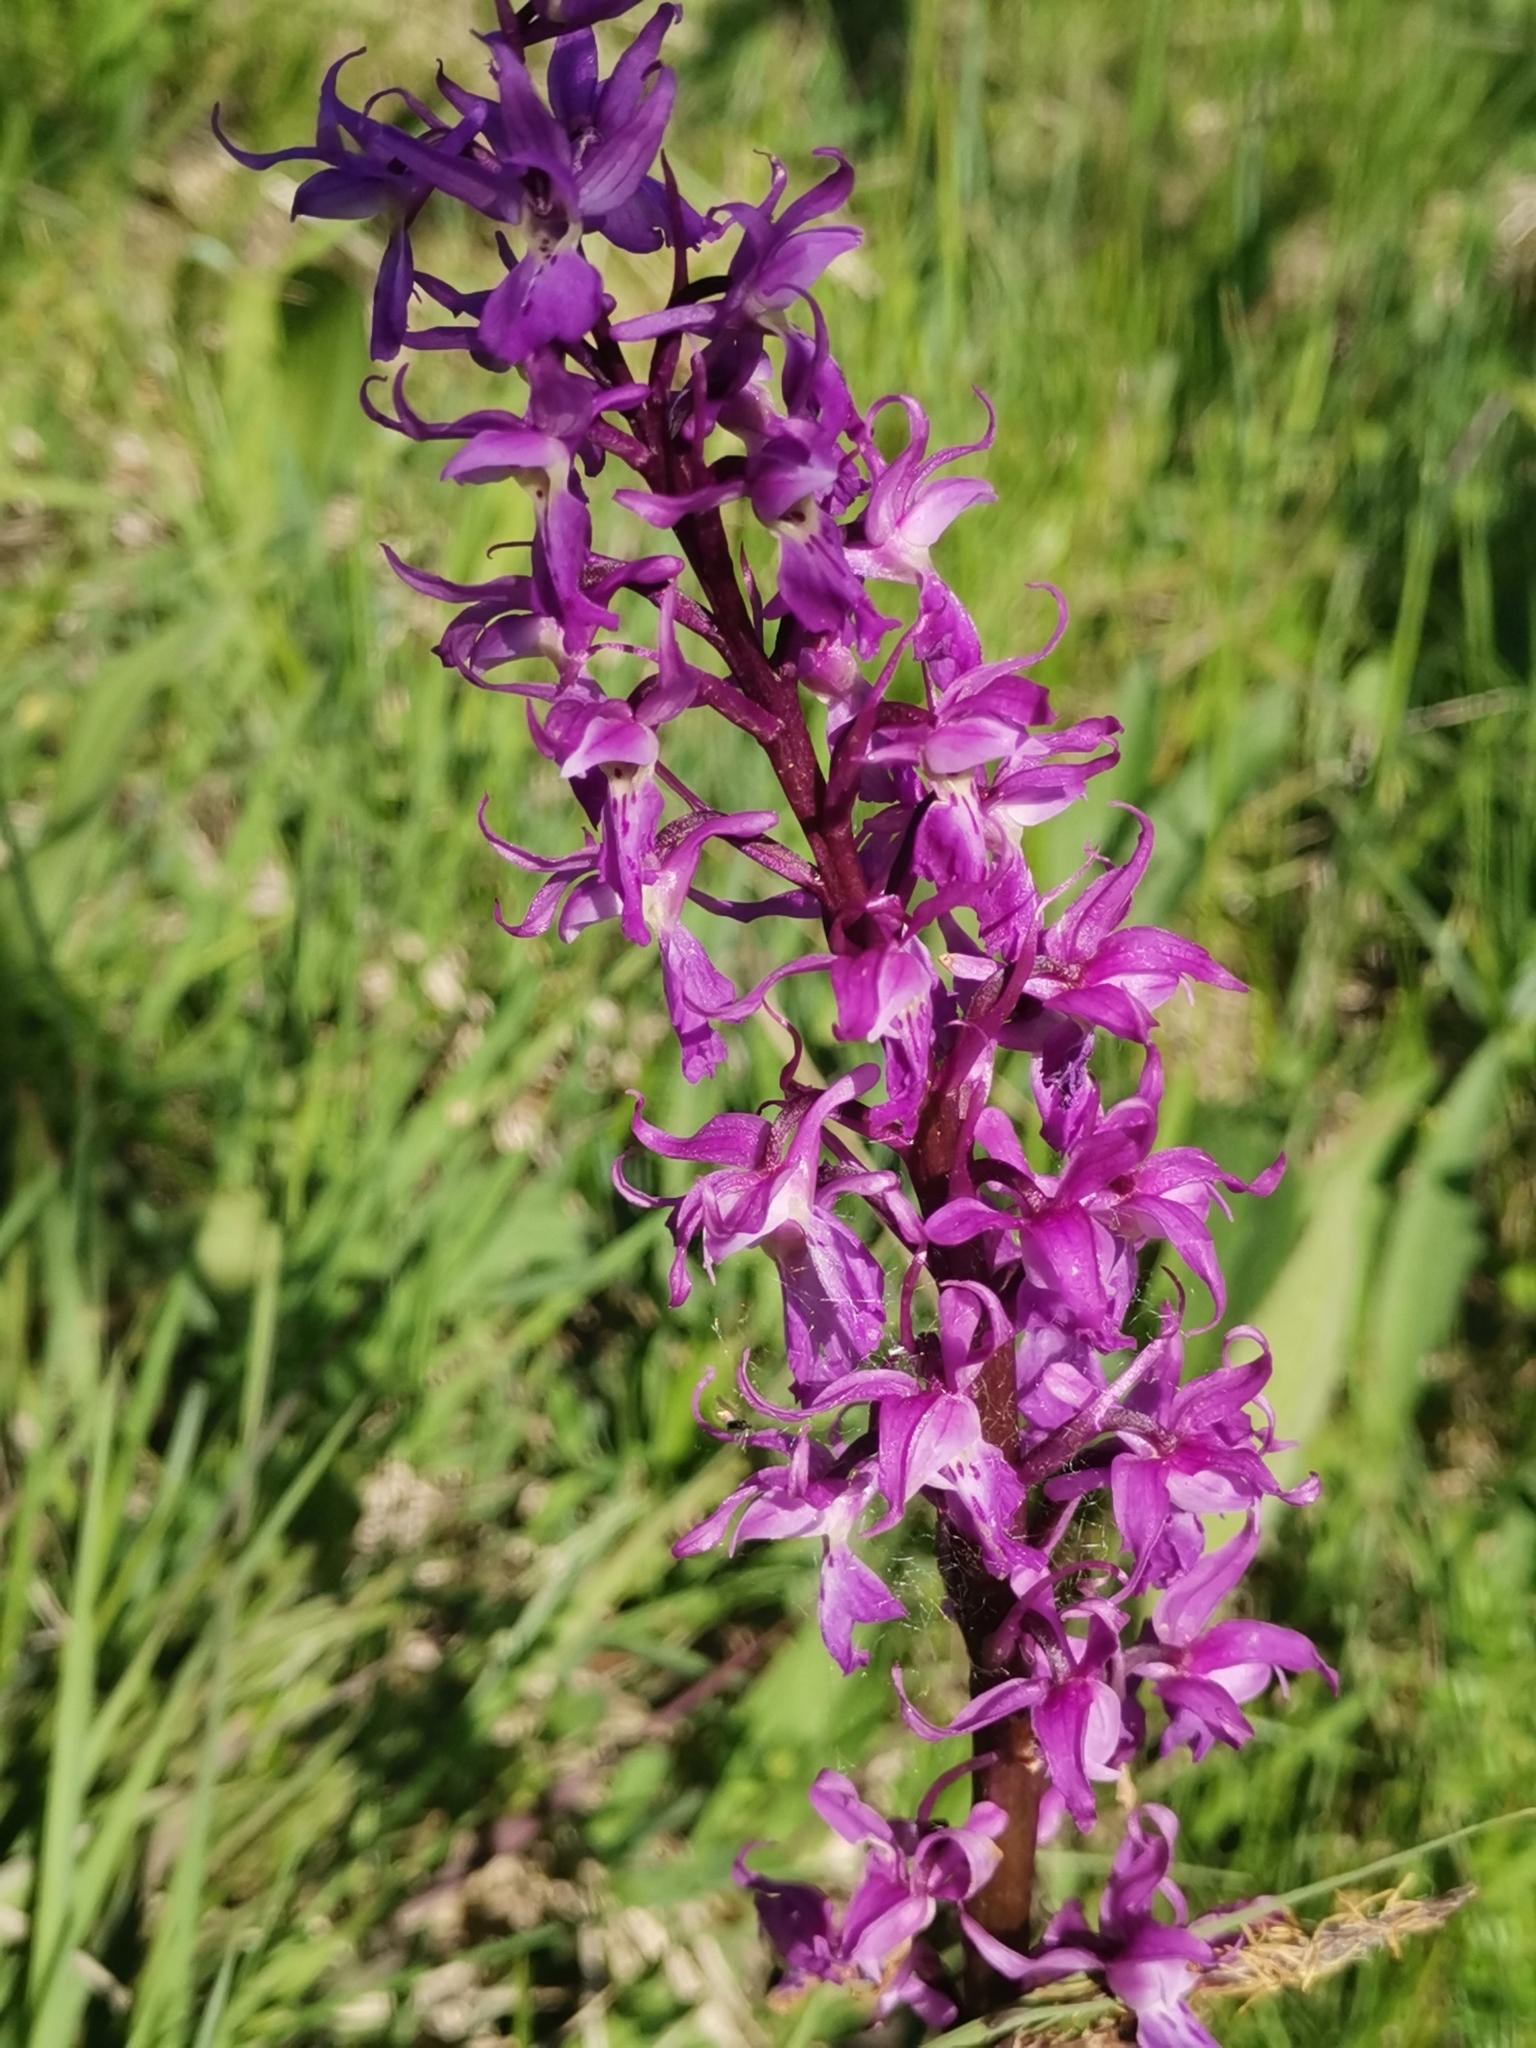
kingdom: Plantae
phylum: Tracheophyta
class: Liliopsida
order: Asparagales
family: Orchidaceae
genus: Orchis
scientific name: Orchis mascula
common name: Early-purple orchid
